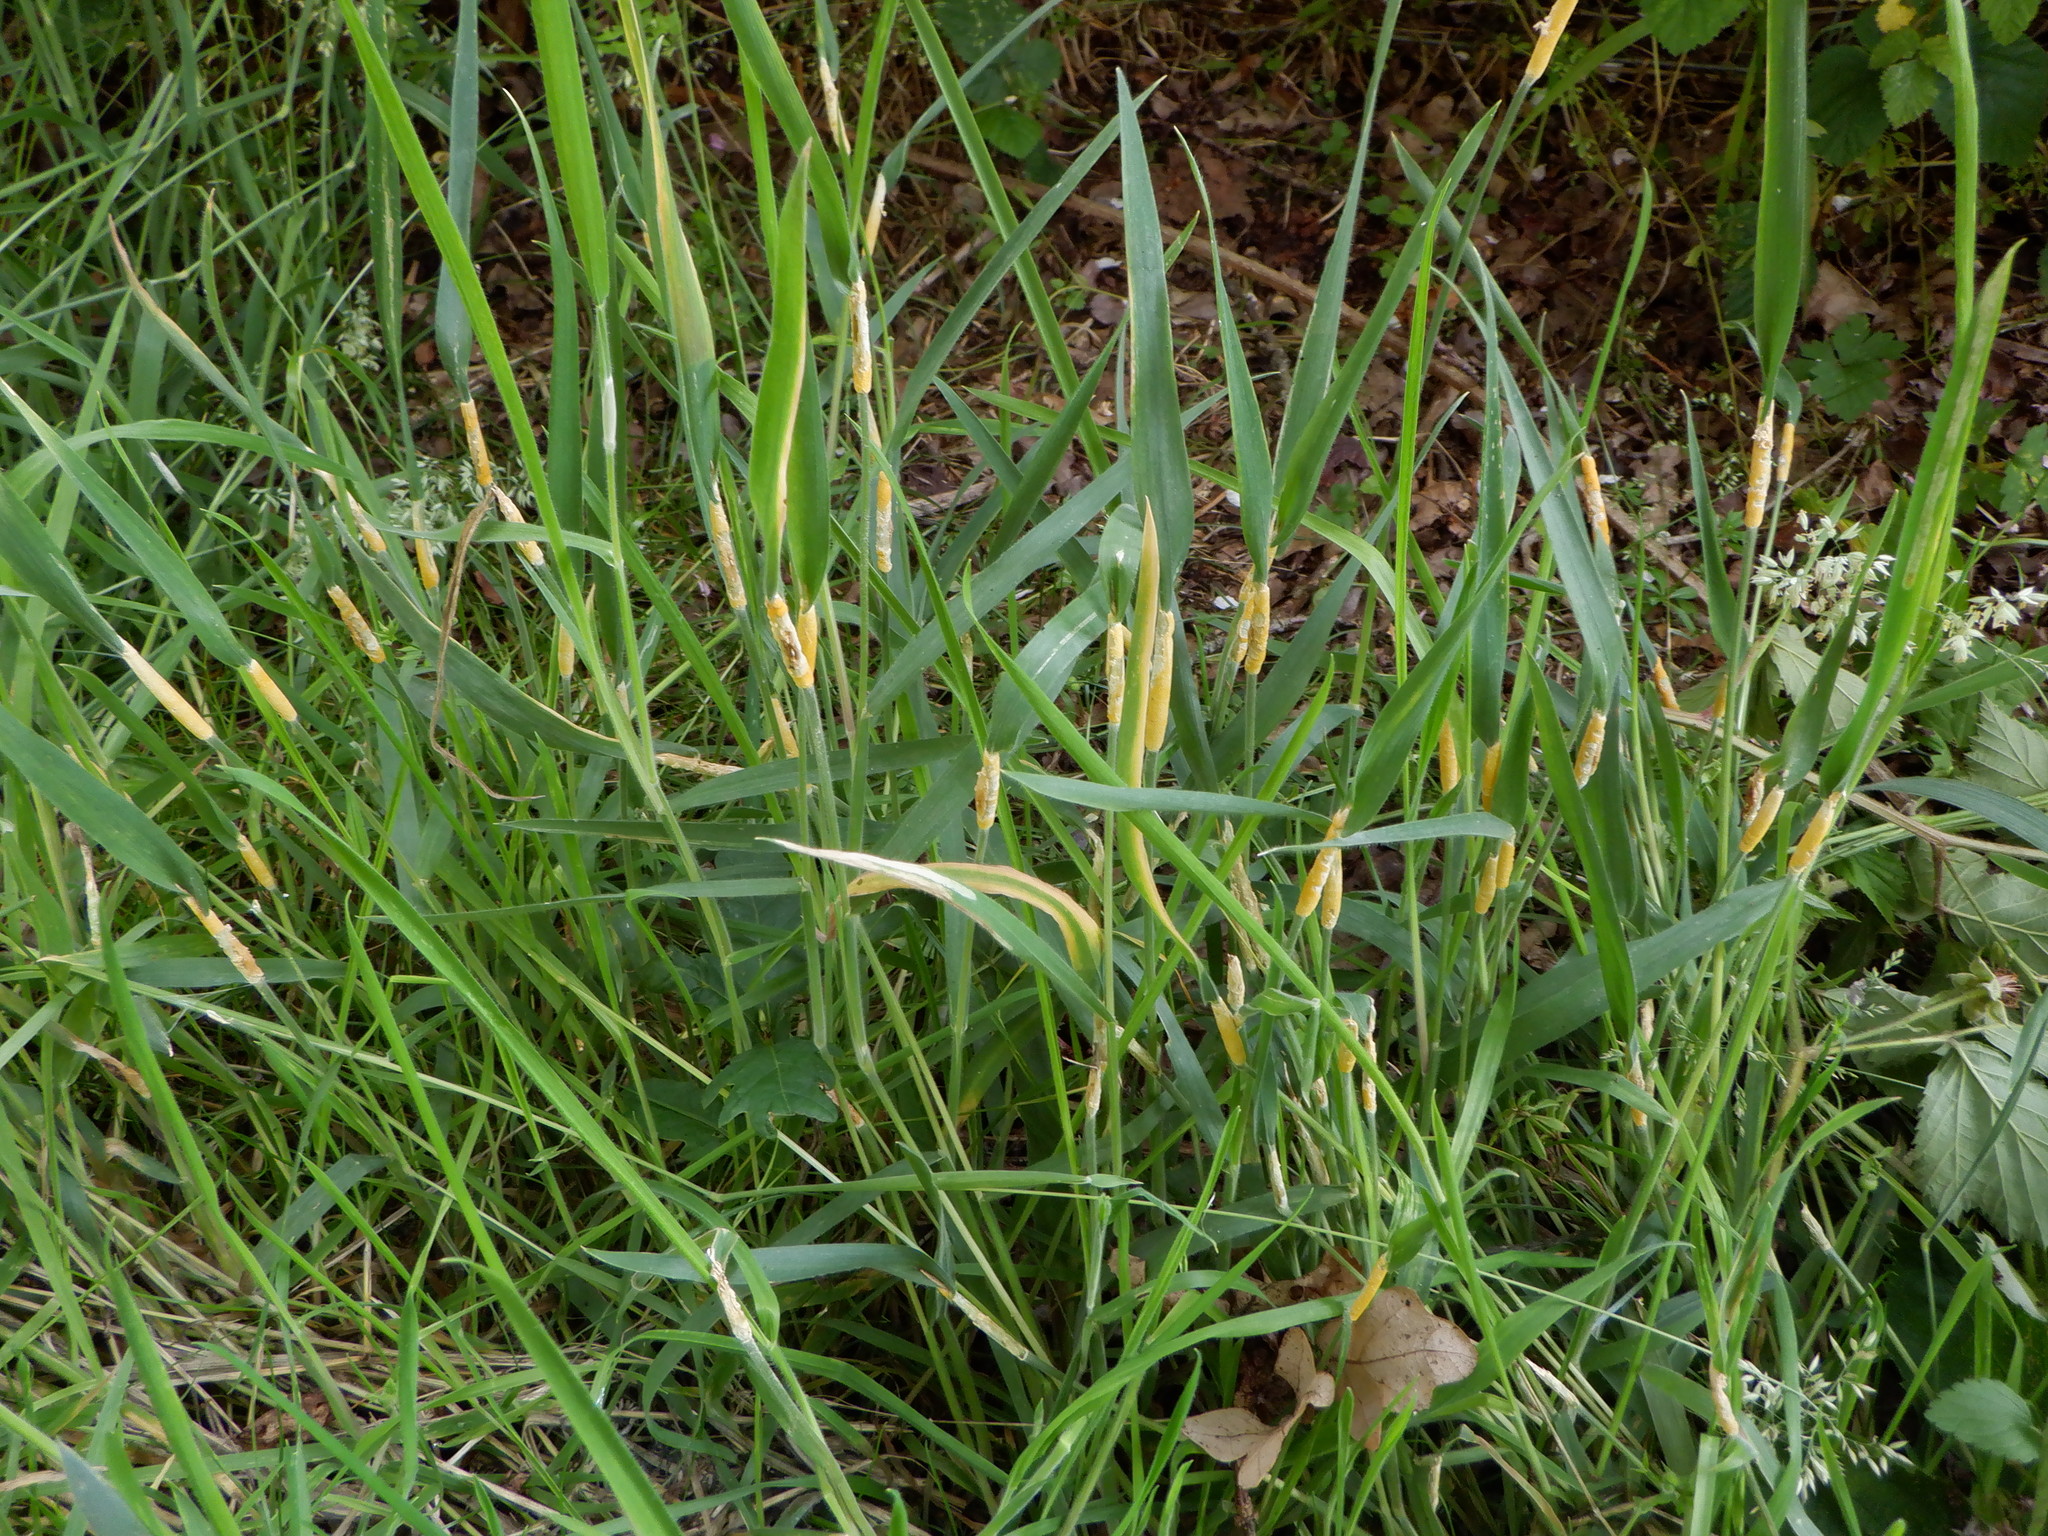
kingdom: Fungi
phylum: Ascomycota
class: Sordariomycetes
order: Hypocreales
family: Clavicipitaceae
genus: Epichloe
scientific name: Epichloe typhina
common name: Choke
